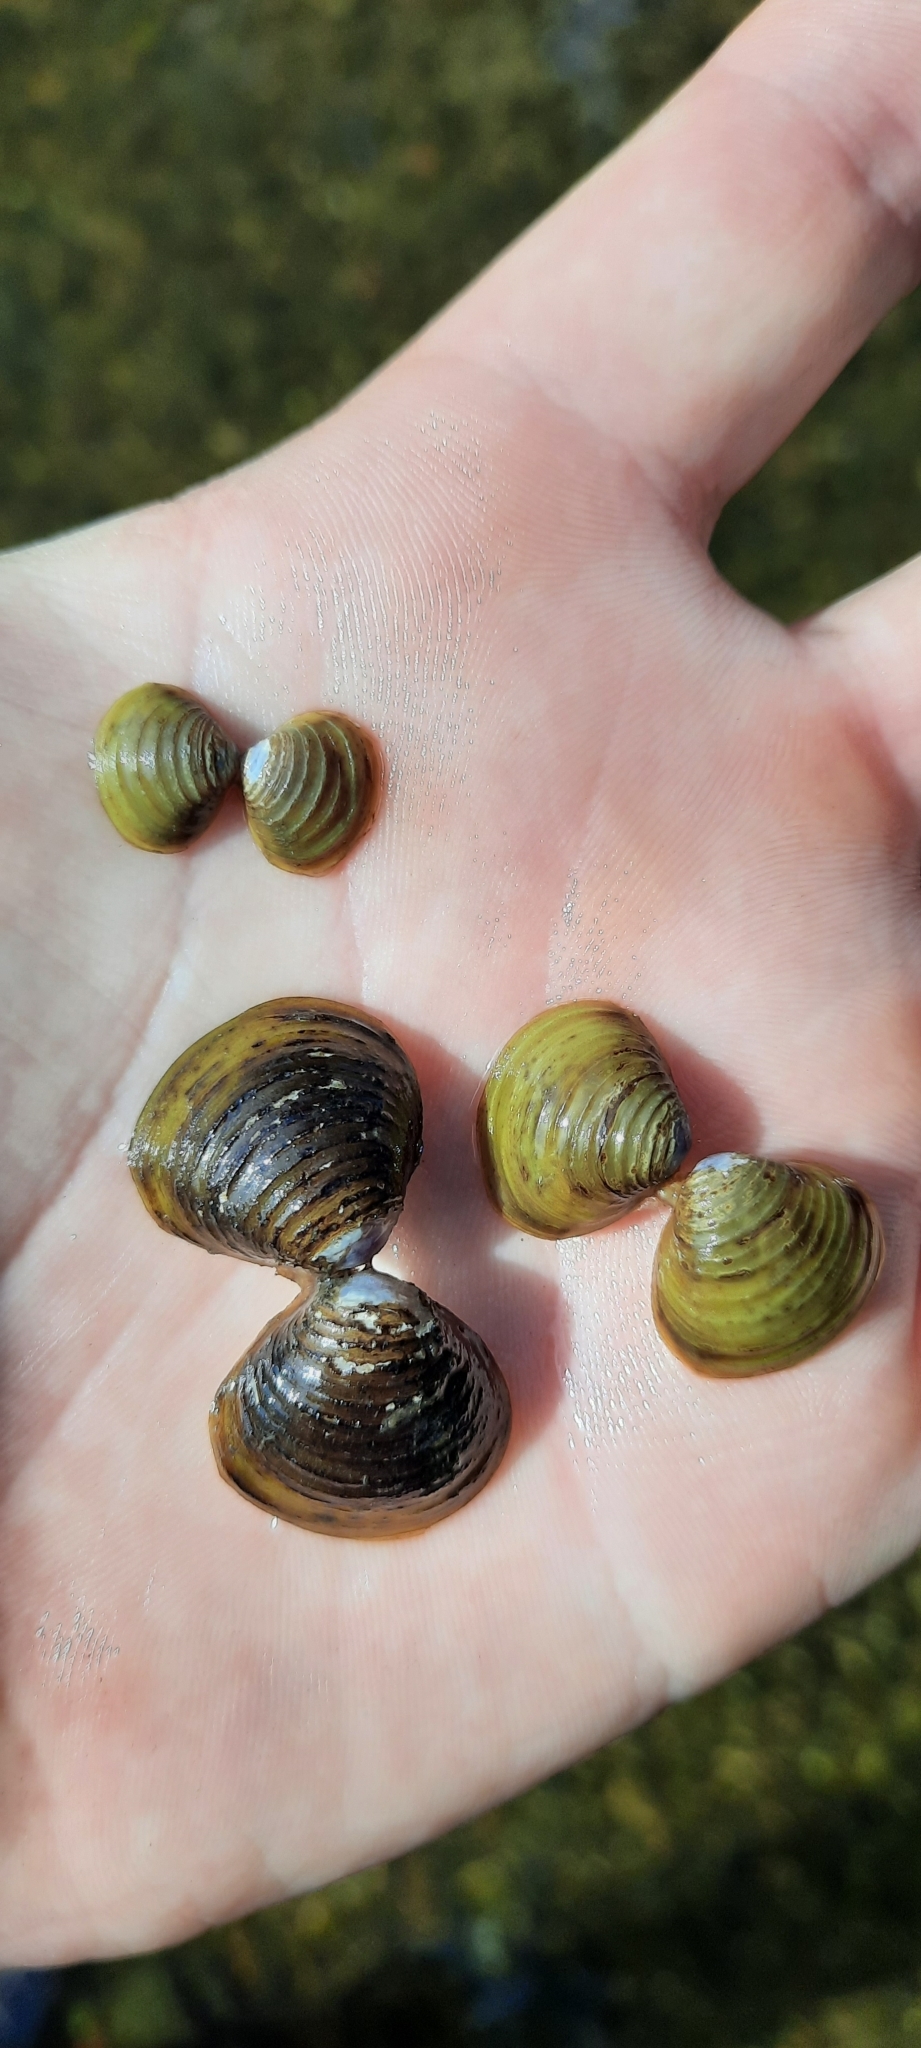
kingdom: Animalia
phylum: Mollusca
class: Bivalvia
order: Venerida
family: Cyrenidae
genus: Corbicula
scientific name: Corbicula fluminea
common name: Asian clam
